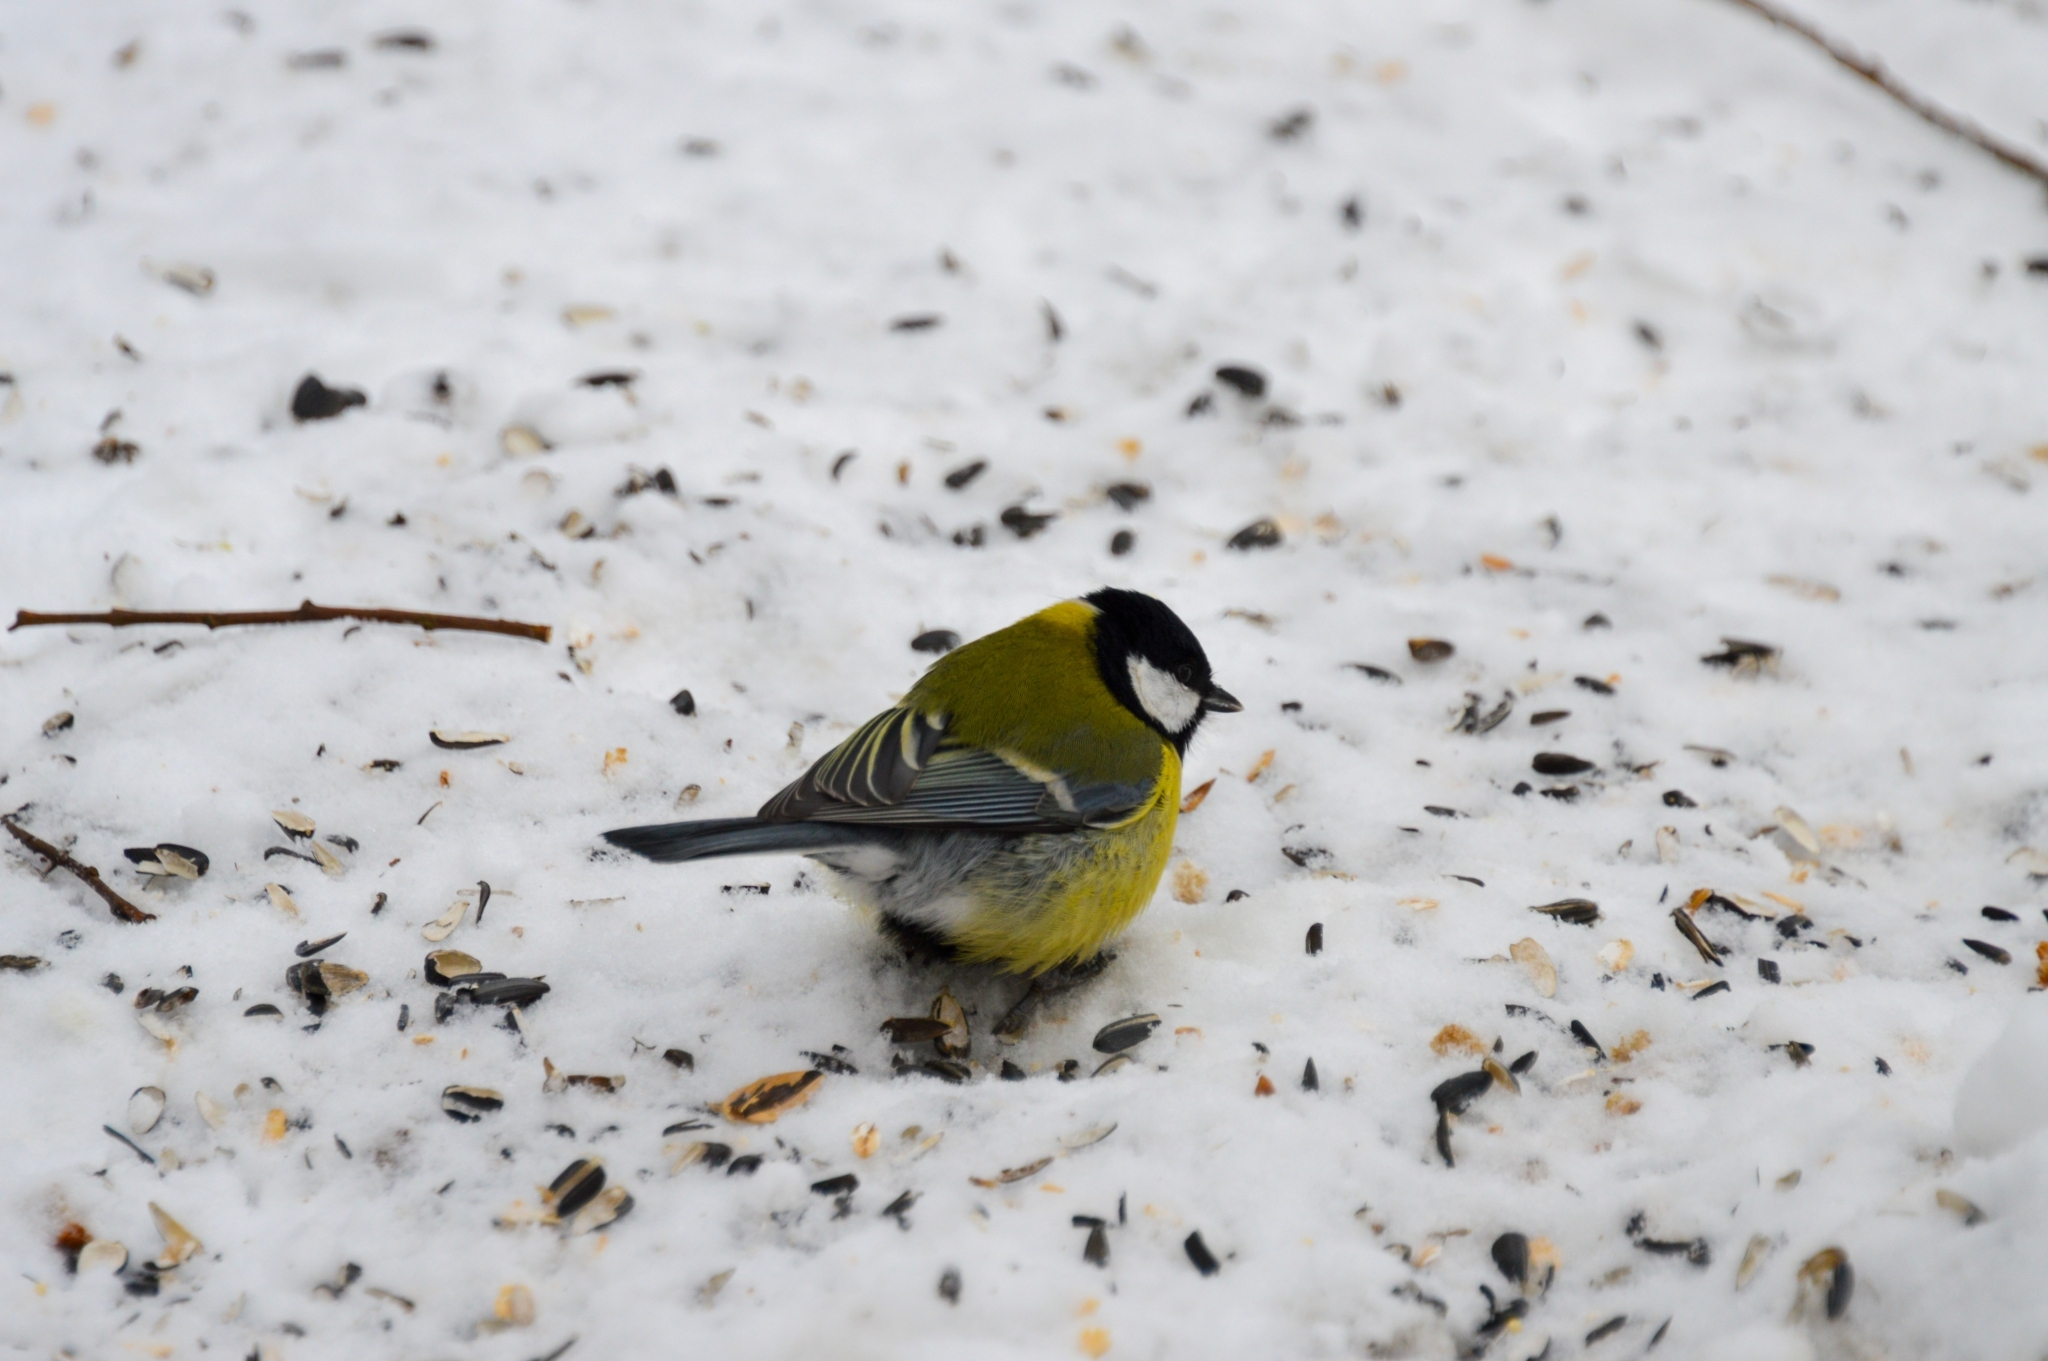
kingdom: Animalia
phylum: Chordata
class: Aves
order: Passeriformes
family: Paridae
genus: Parus
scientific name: Parus major
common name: Great tit
